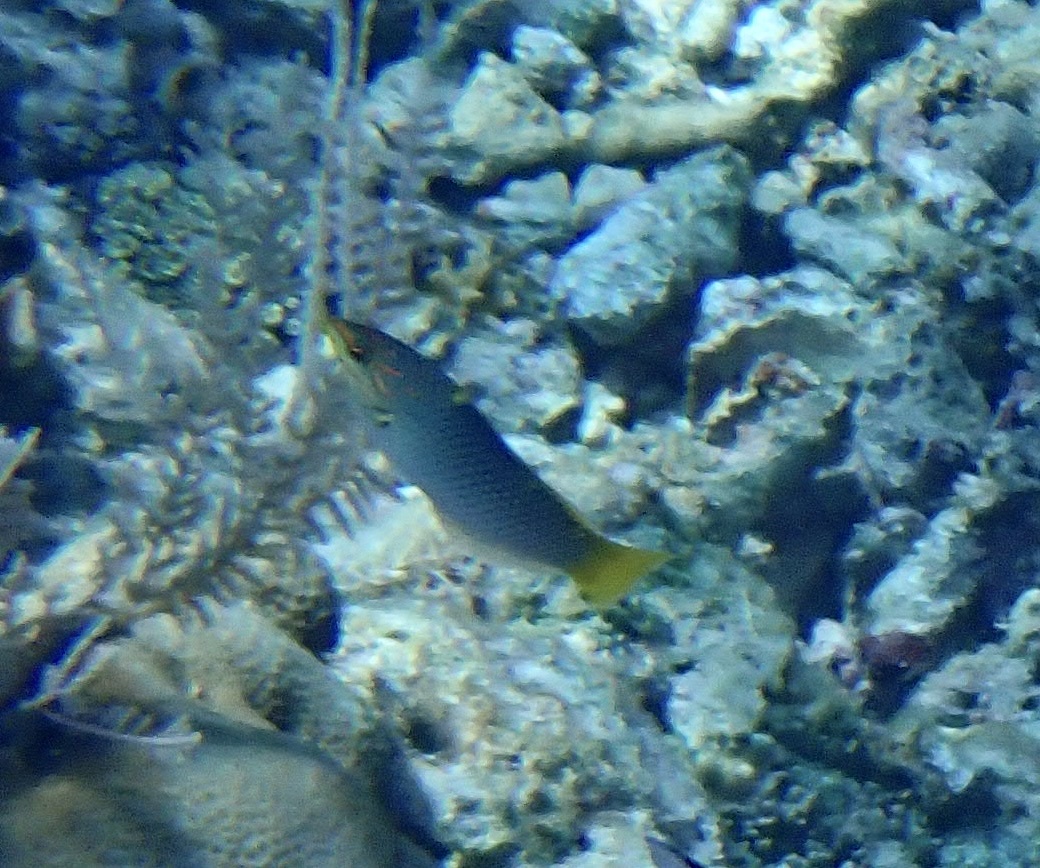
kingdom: Animalia
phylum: Chordata
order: Perciformes
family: Labridae
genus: Halichoeres
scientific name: Halichoeres hortulanus
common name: Checkerboard wrasse
